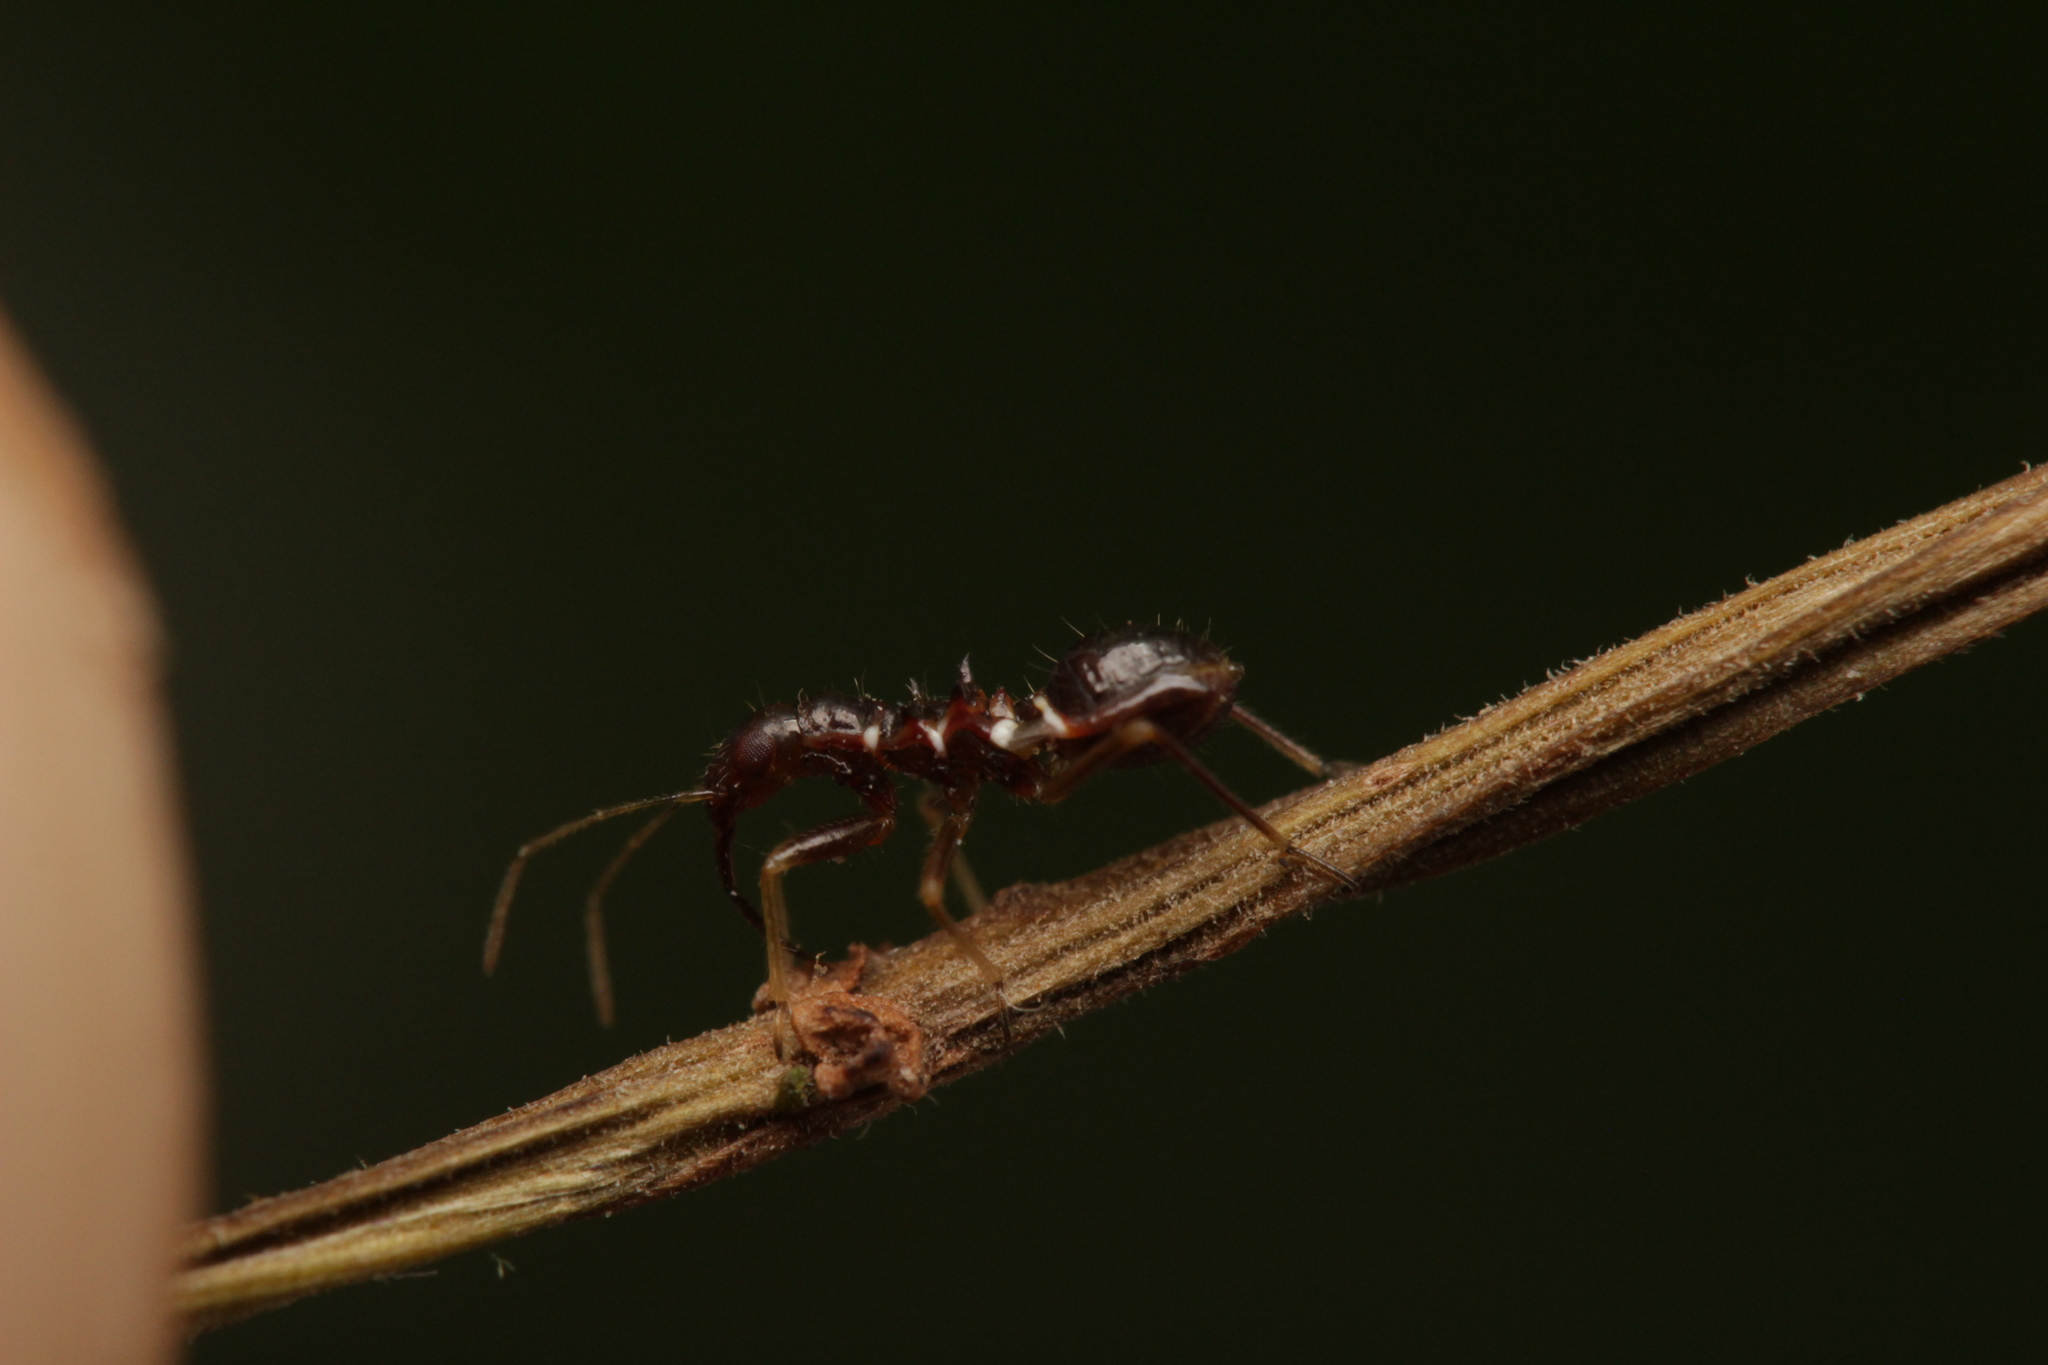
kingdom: Animalia
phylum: Arthropoda
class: Insecta
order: Hemiptera
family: Nabidae
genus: Himacerus
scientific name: Himacerus mirmicoides
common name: Ant damsel bug
